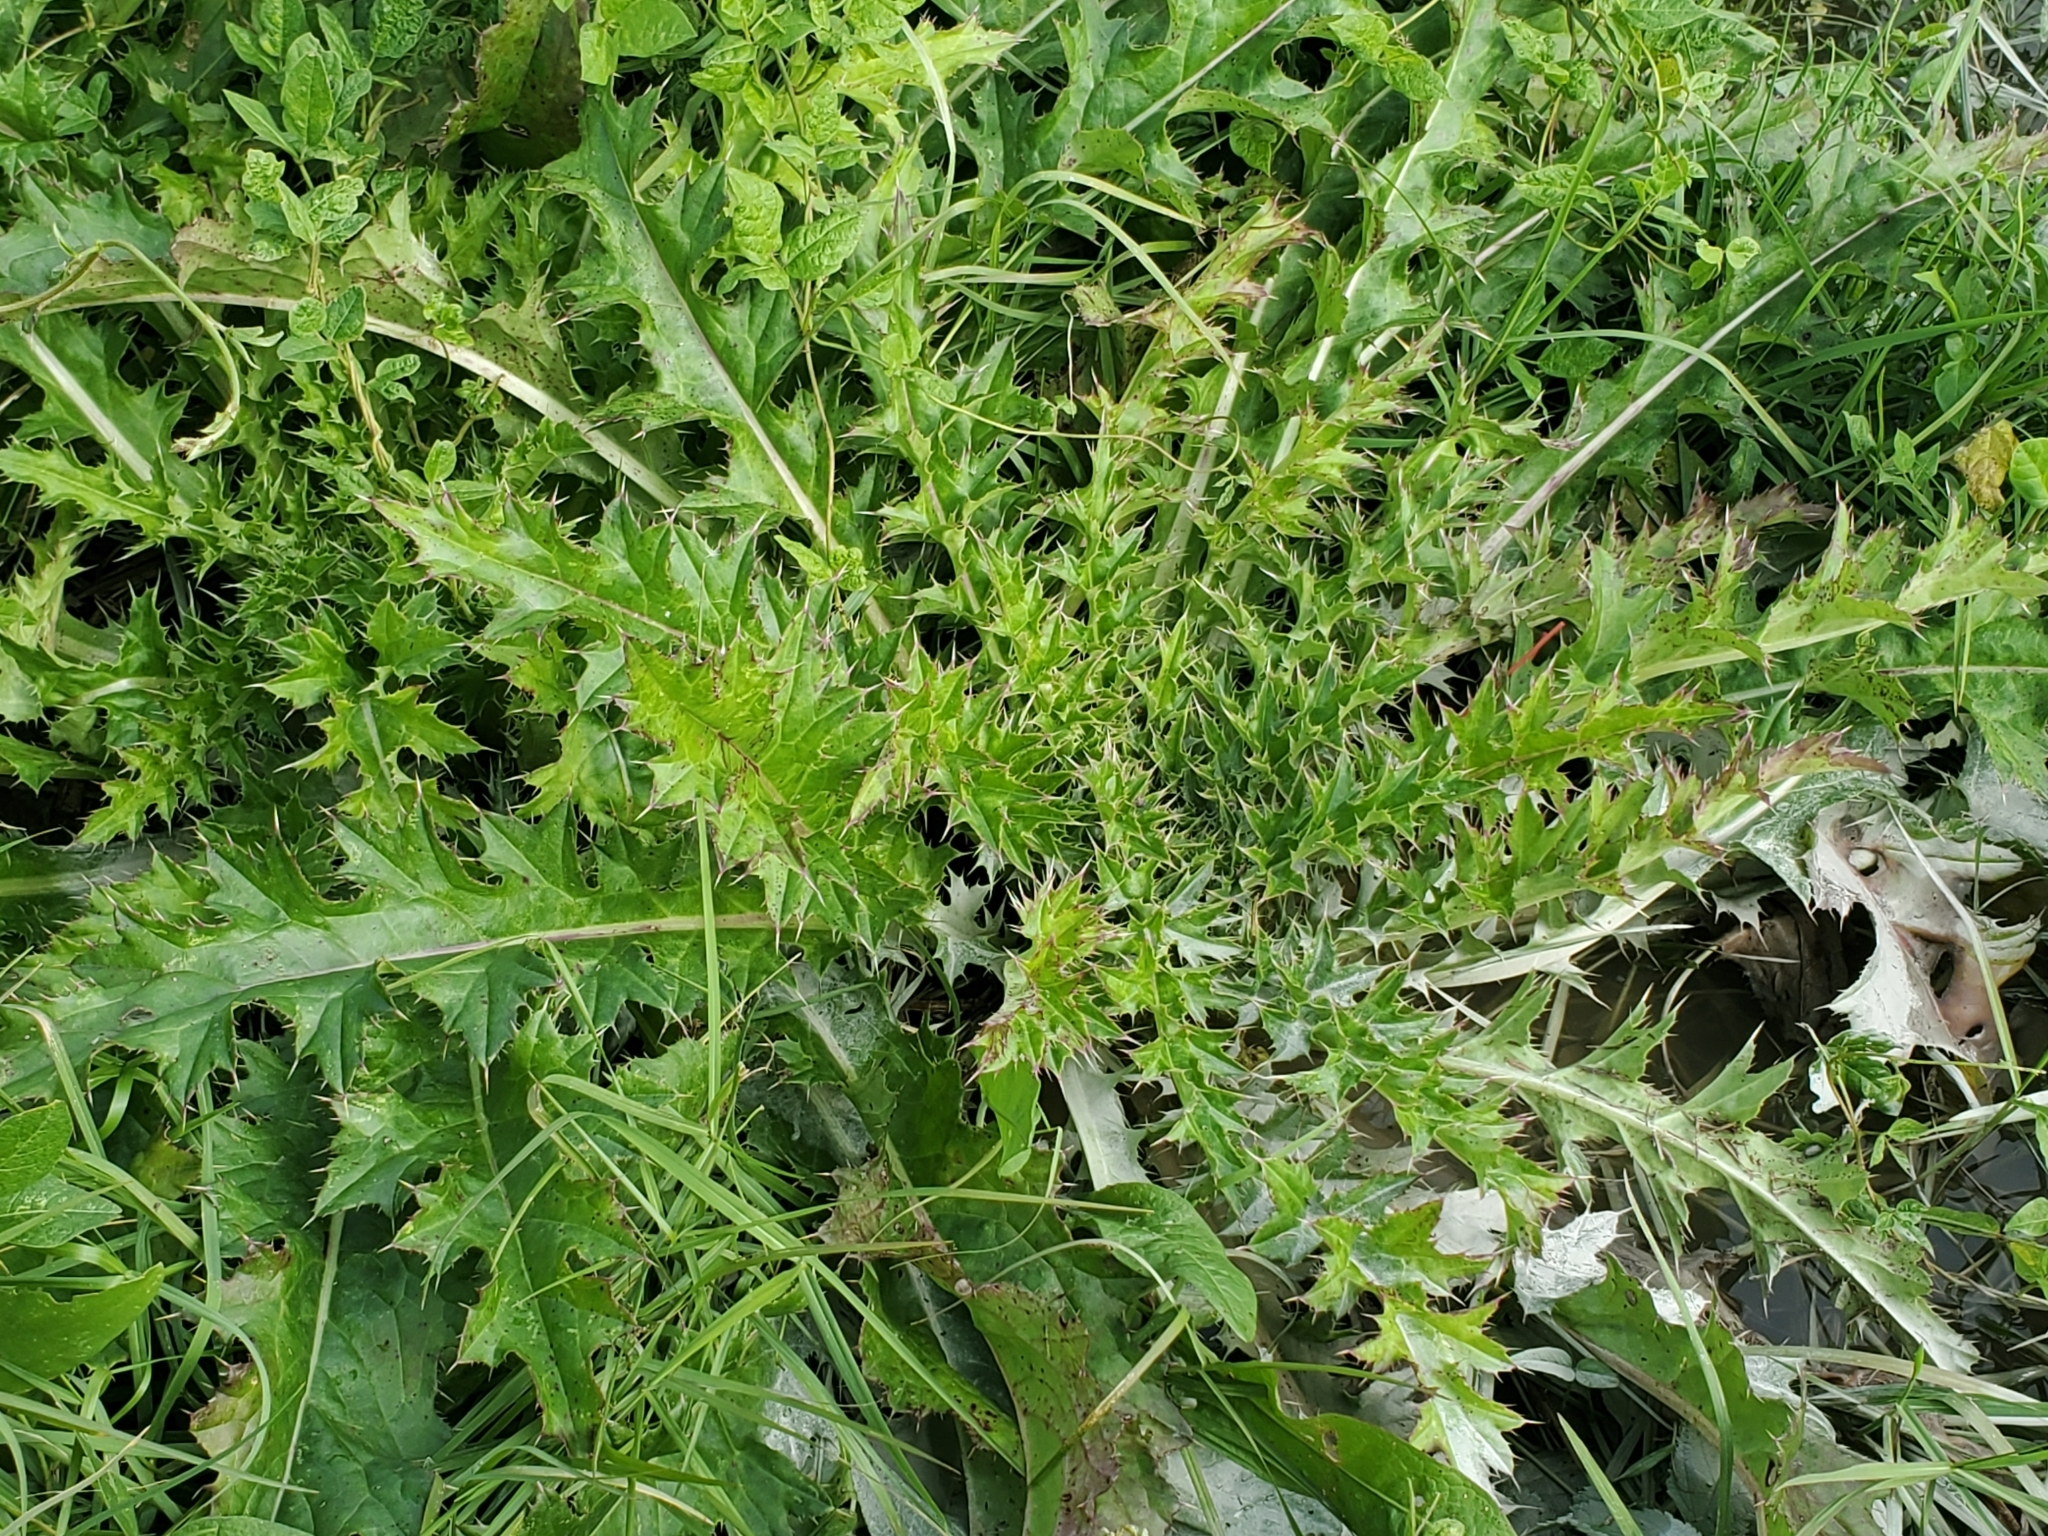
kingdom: Plantae
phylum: Tracheophyta
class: Magnoliopsida
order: Asterales
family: Asteraceae
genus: Cirsium
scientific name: Cirsium horridulum
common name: Bristly thistle
